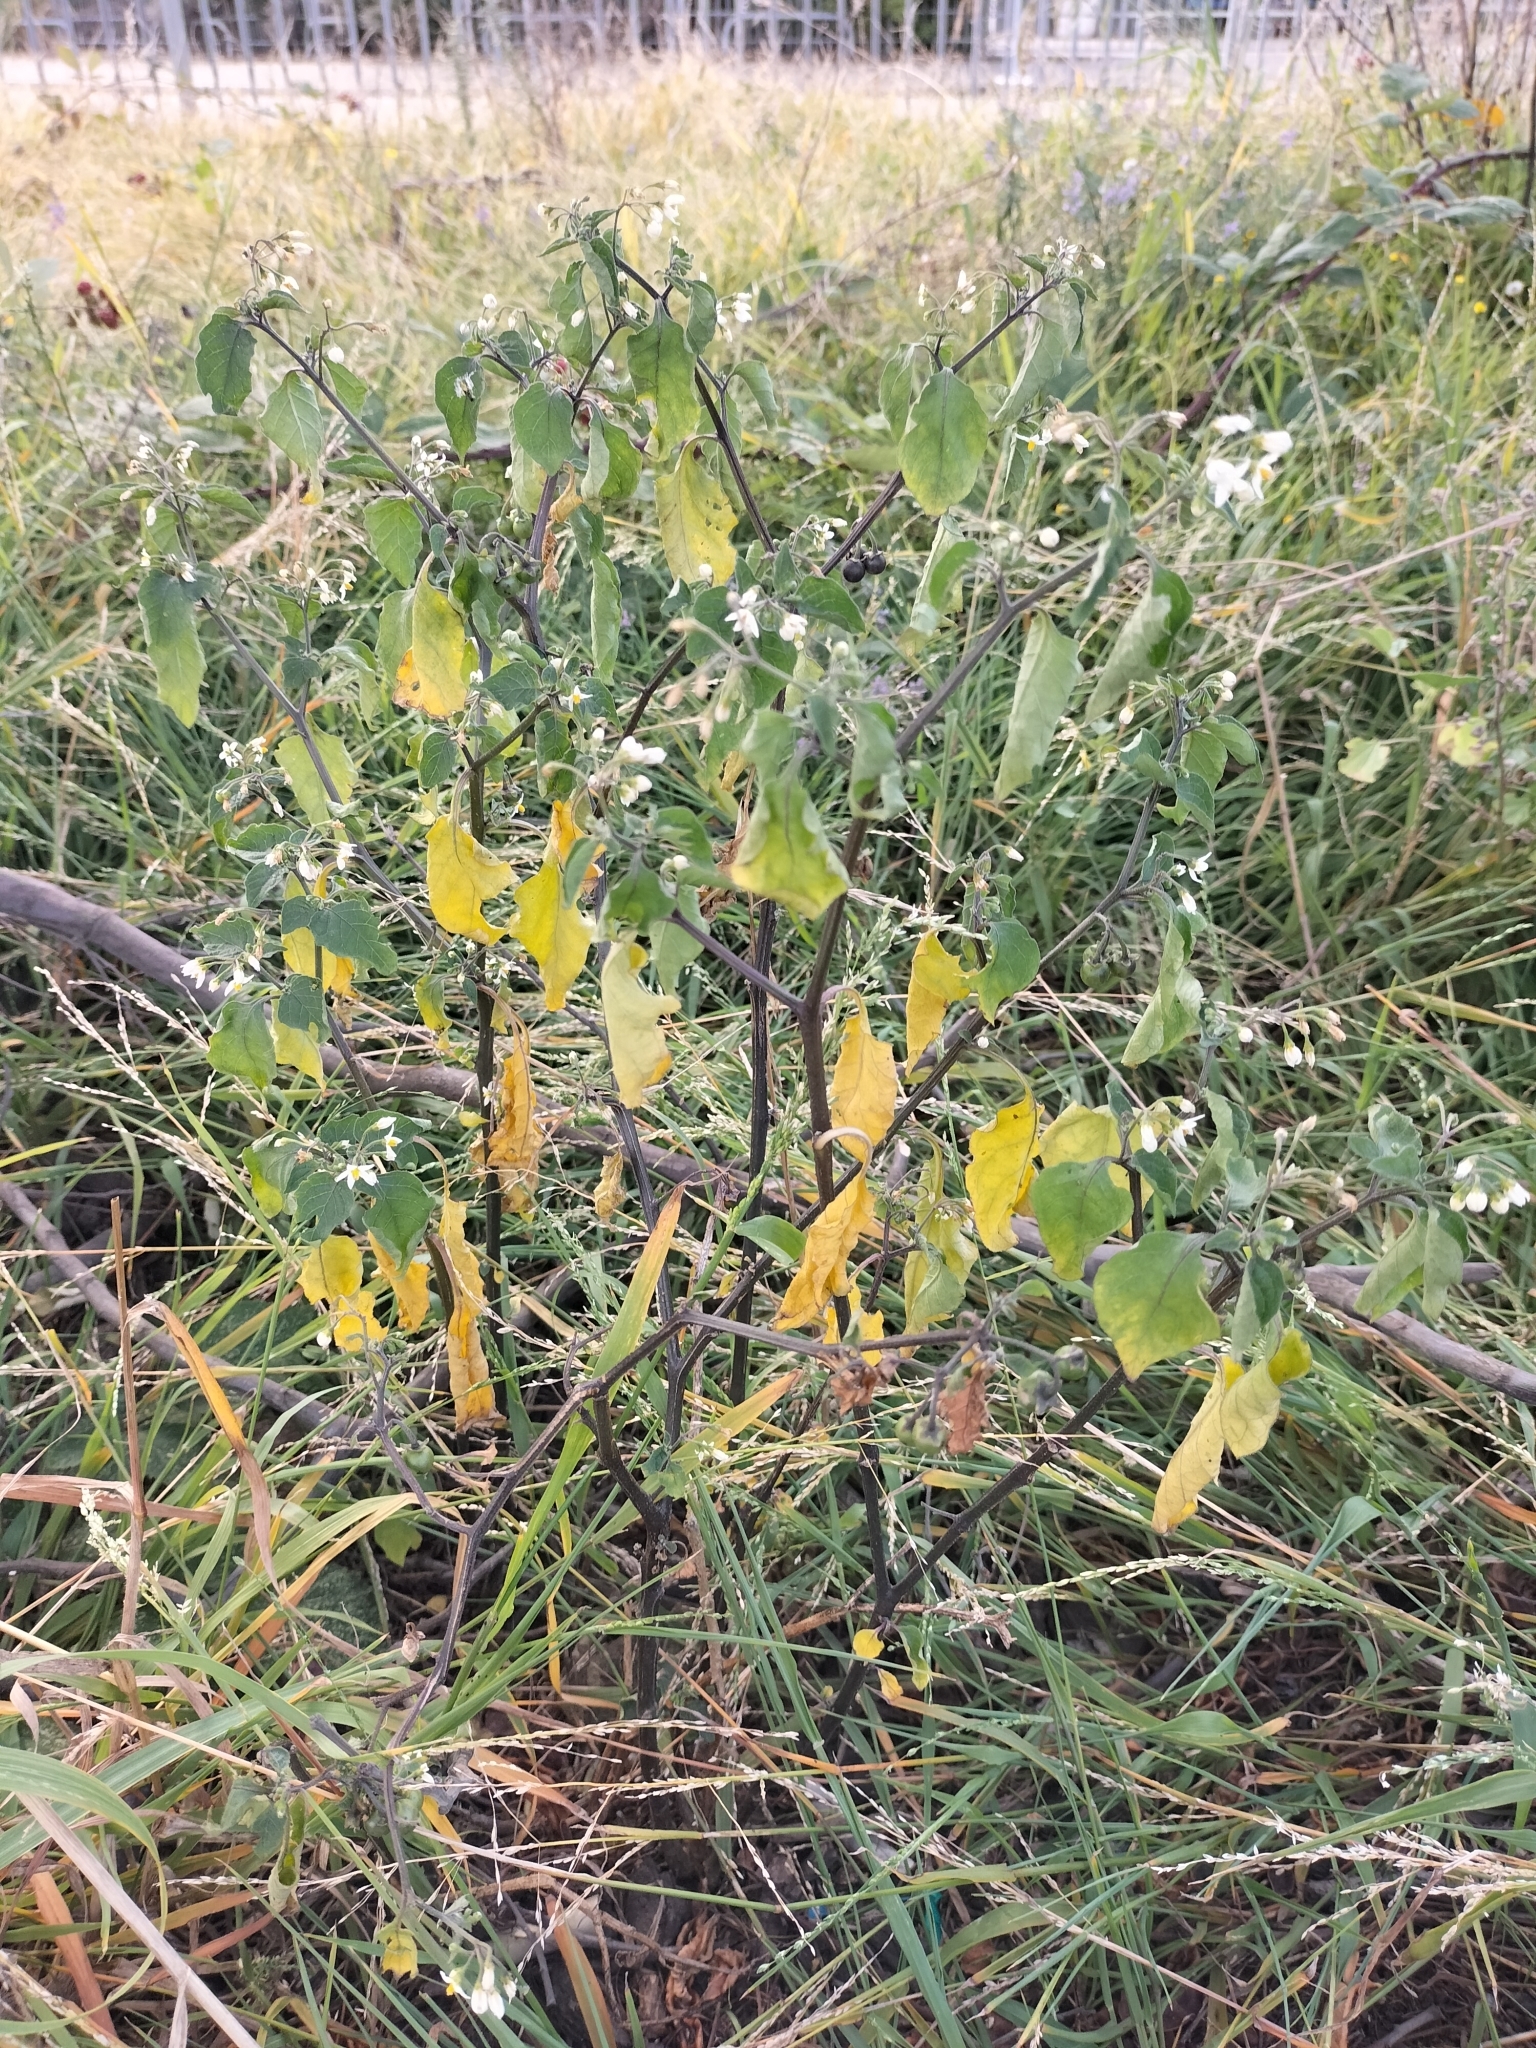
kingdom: Plantae
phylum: Tracheophyta
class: Magnoliopsida
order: Solanales
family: Solanaceae
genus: Solanum
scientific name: Solanum nigrum
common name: Black nightshade
